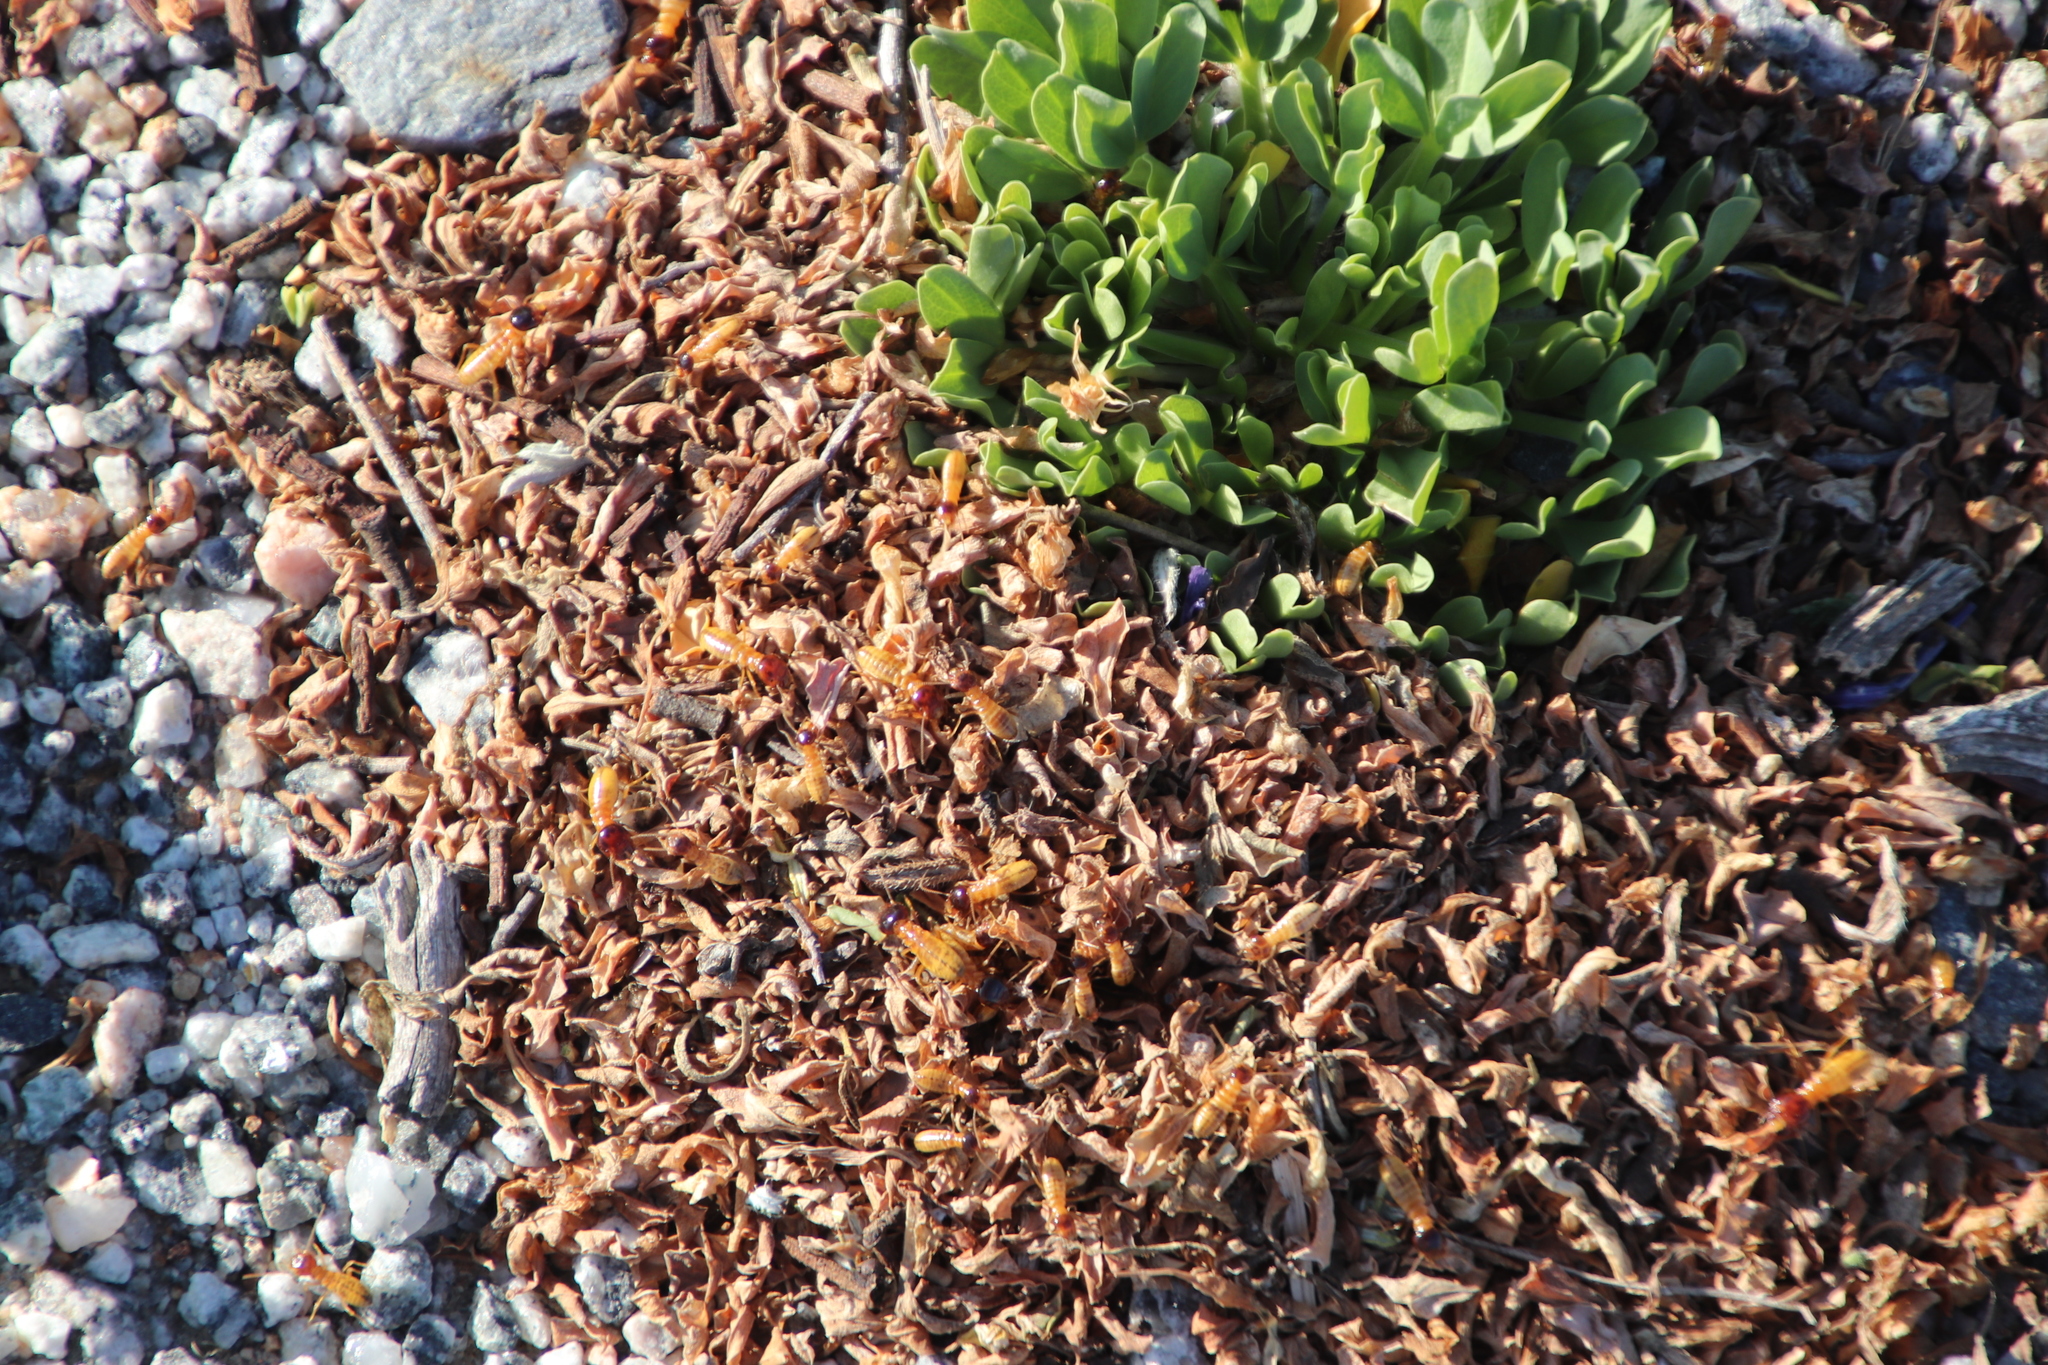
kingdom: Animalia
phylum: Arthropoda
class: Insecta
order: Blattodea
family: Hodotermitidae
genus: Microhodotermes
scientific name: Microhodotermes viator
